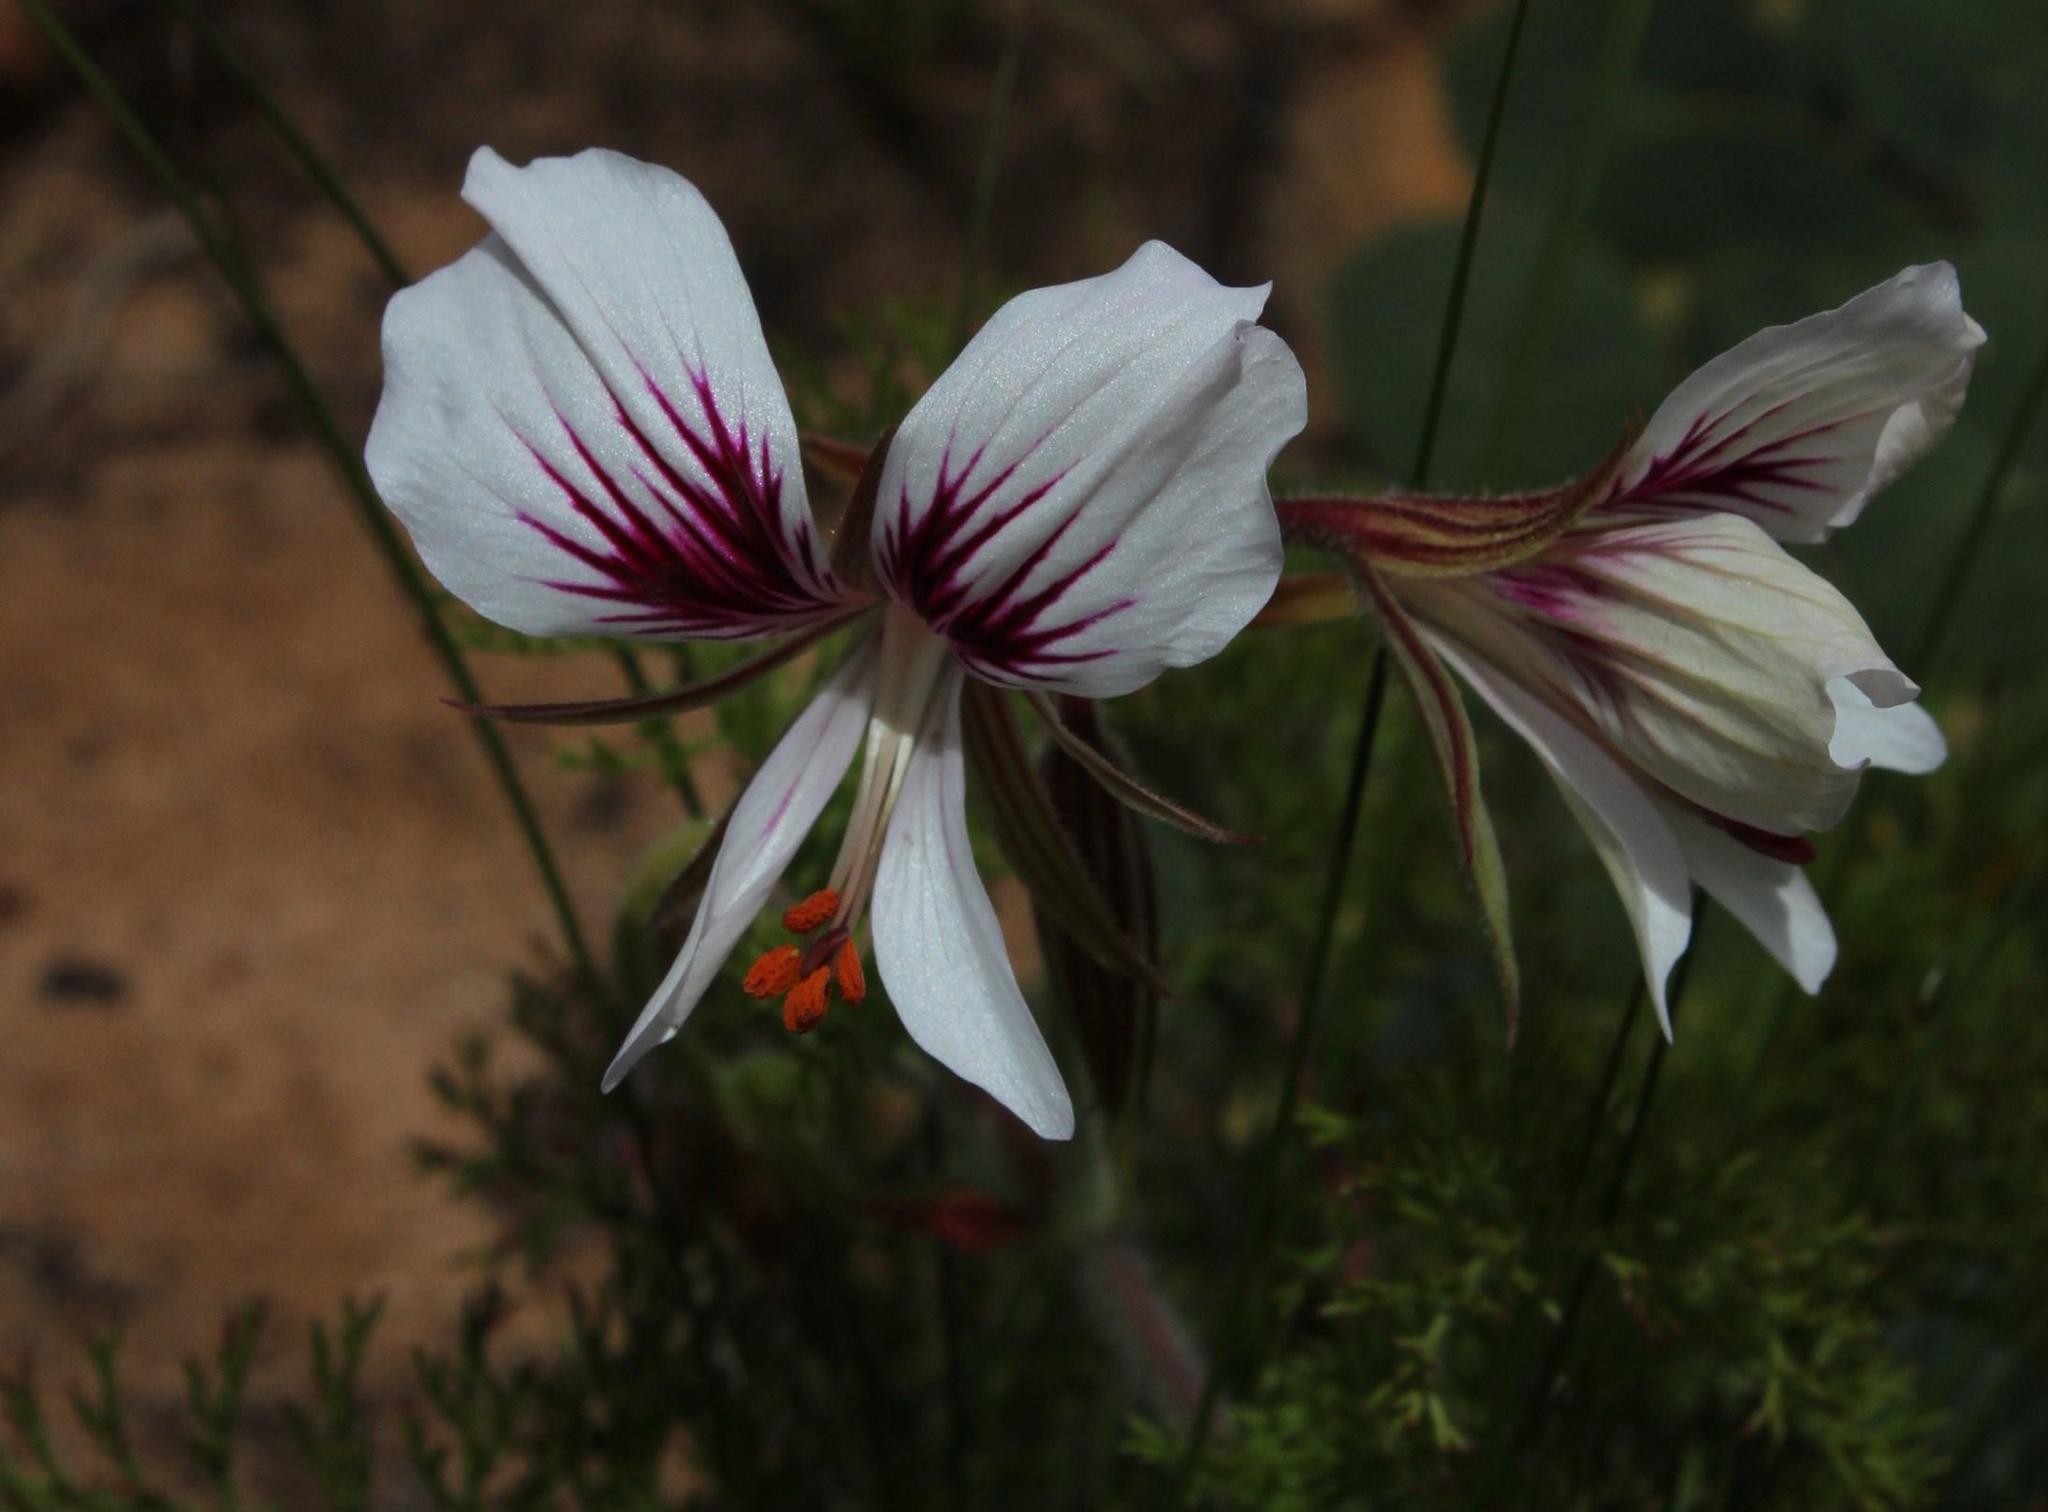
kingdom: Plantae
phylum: Tracheophyta
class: Magnoliopsida
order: Geraniales
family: Geraniaceae
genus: Pelargonium
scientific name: Pelargonium myrrhifolium
